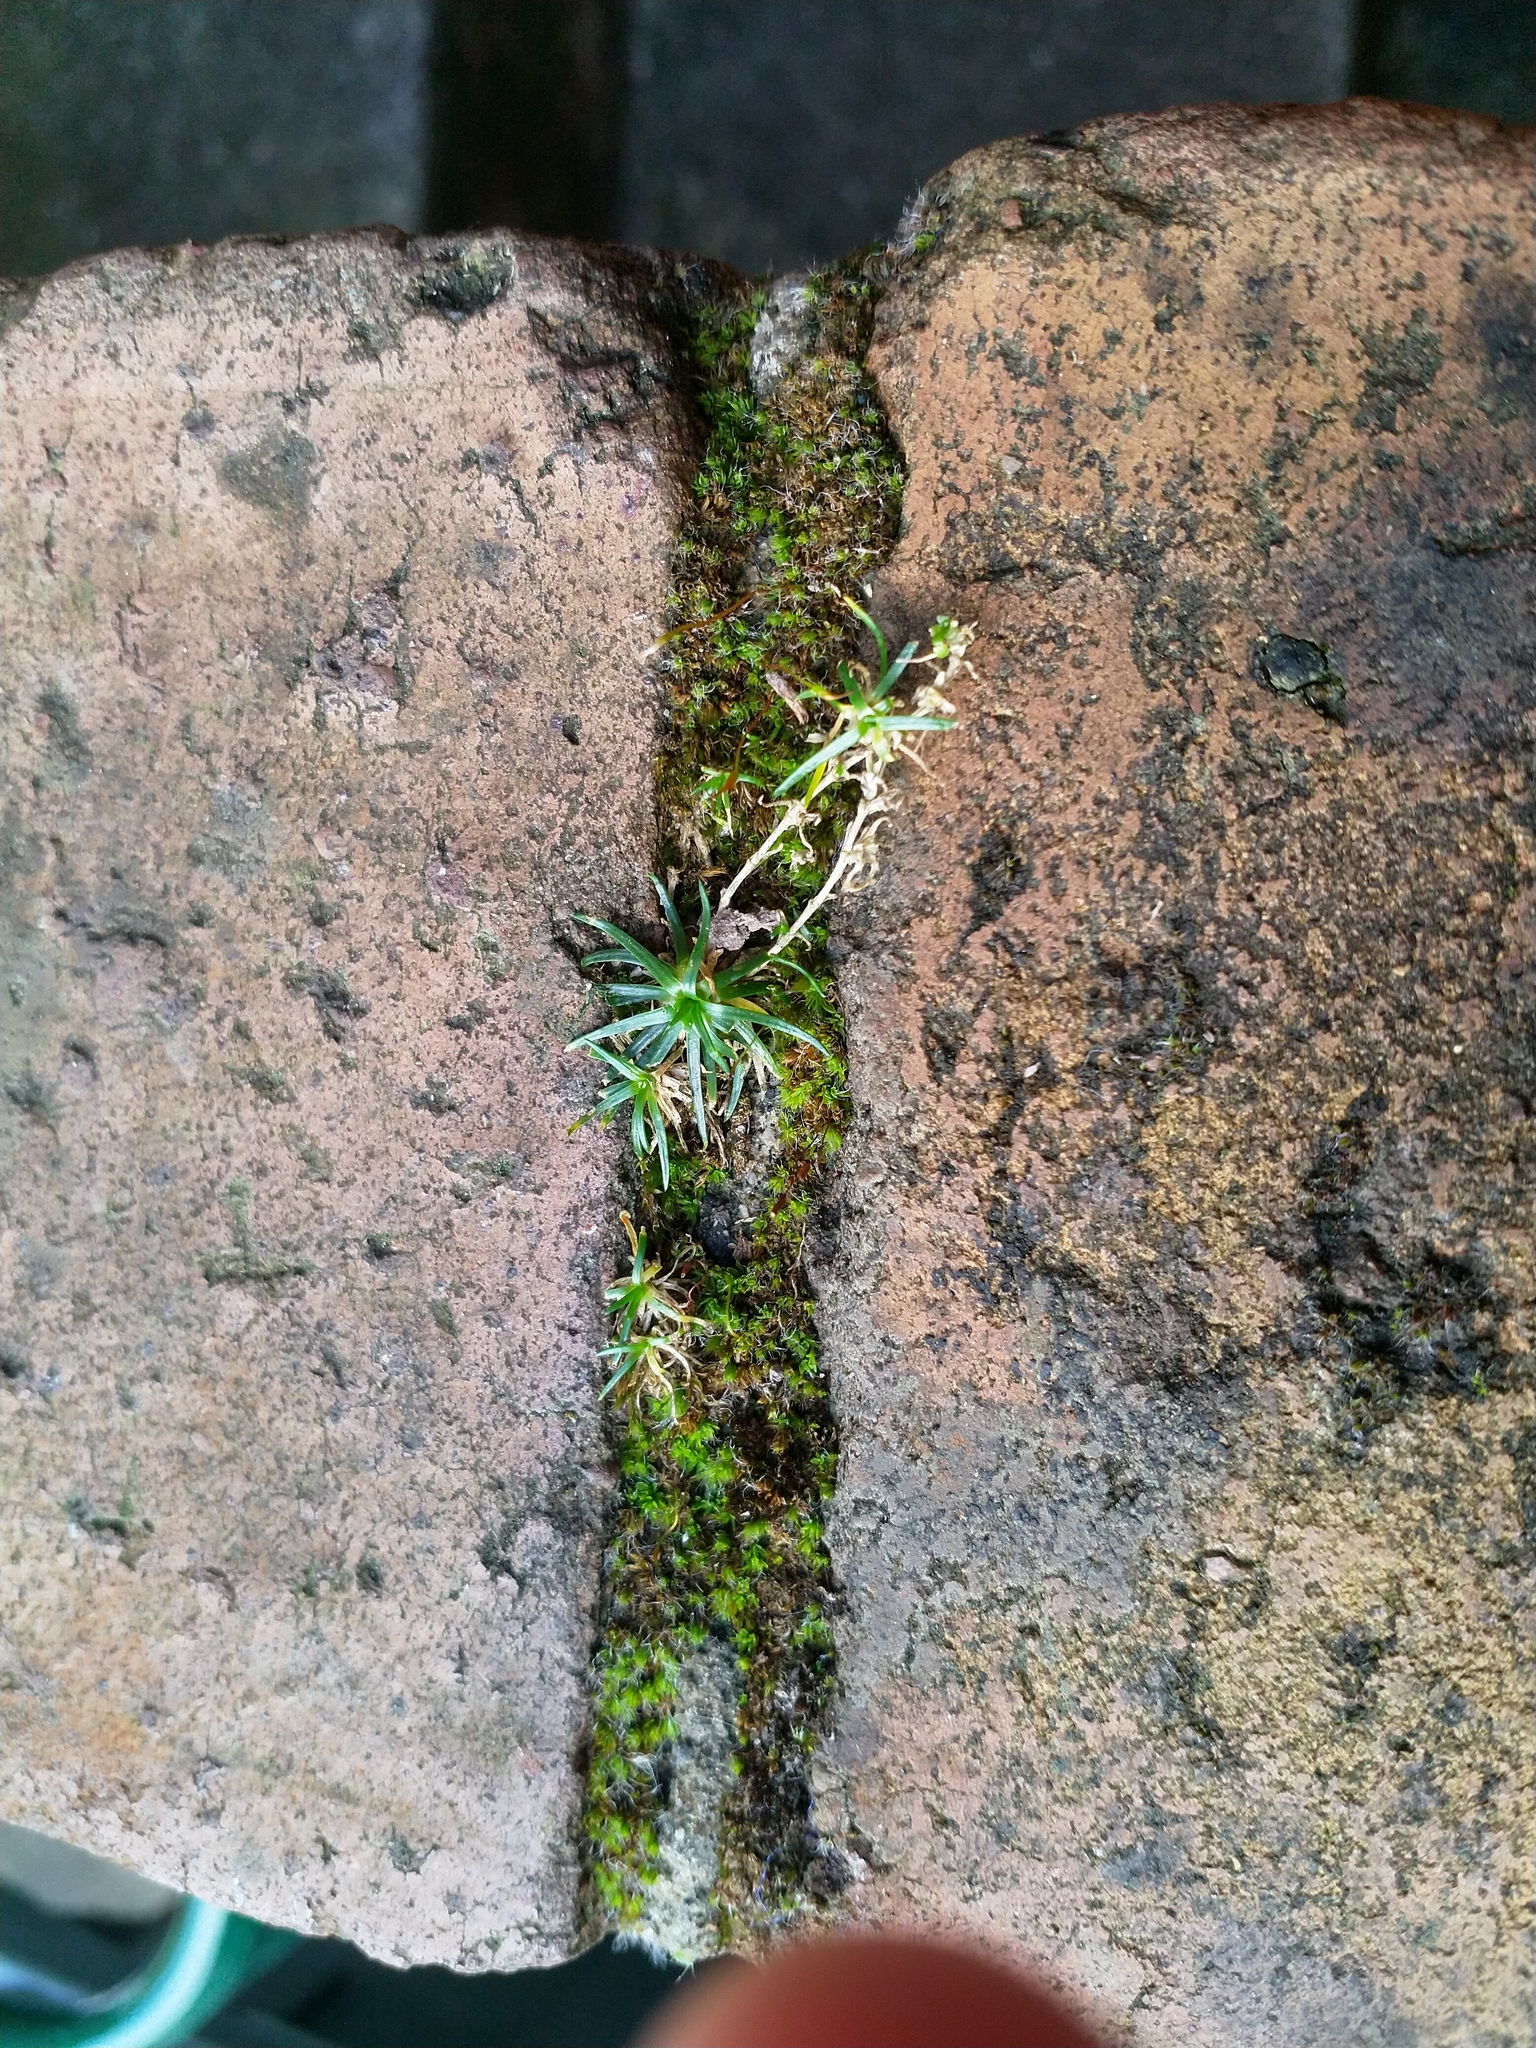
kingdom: Plantae
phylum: Tracheophyta
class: Magnoliopsida
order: Caryophyllales
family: Caryophyllaceae
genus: Sagina
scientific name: Sagina procumbens
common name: Procumbent pearlwort
